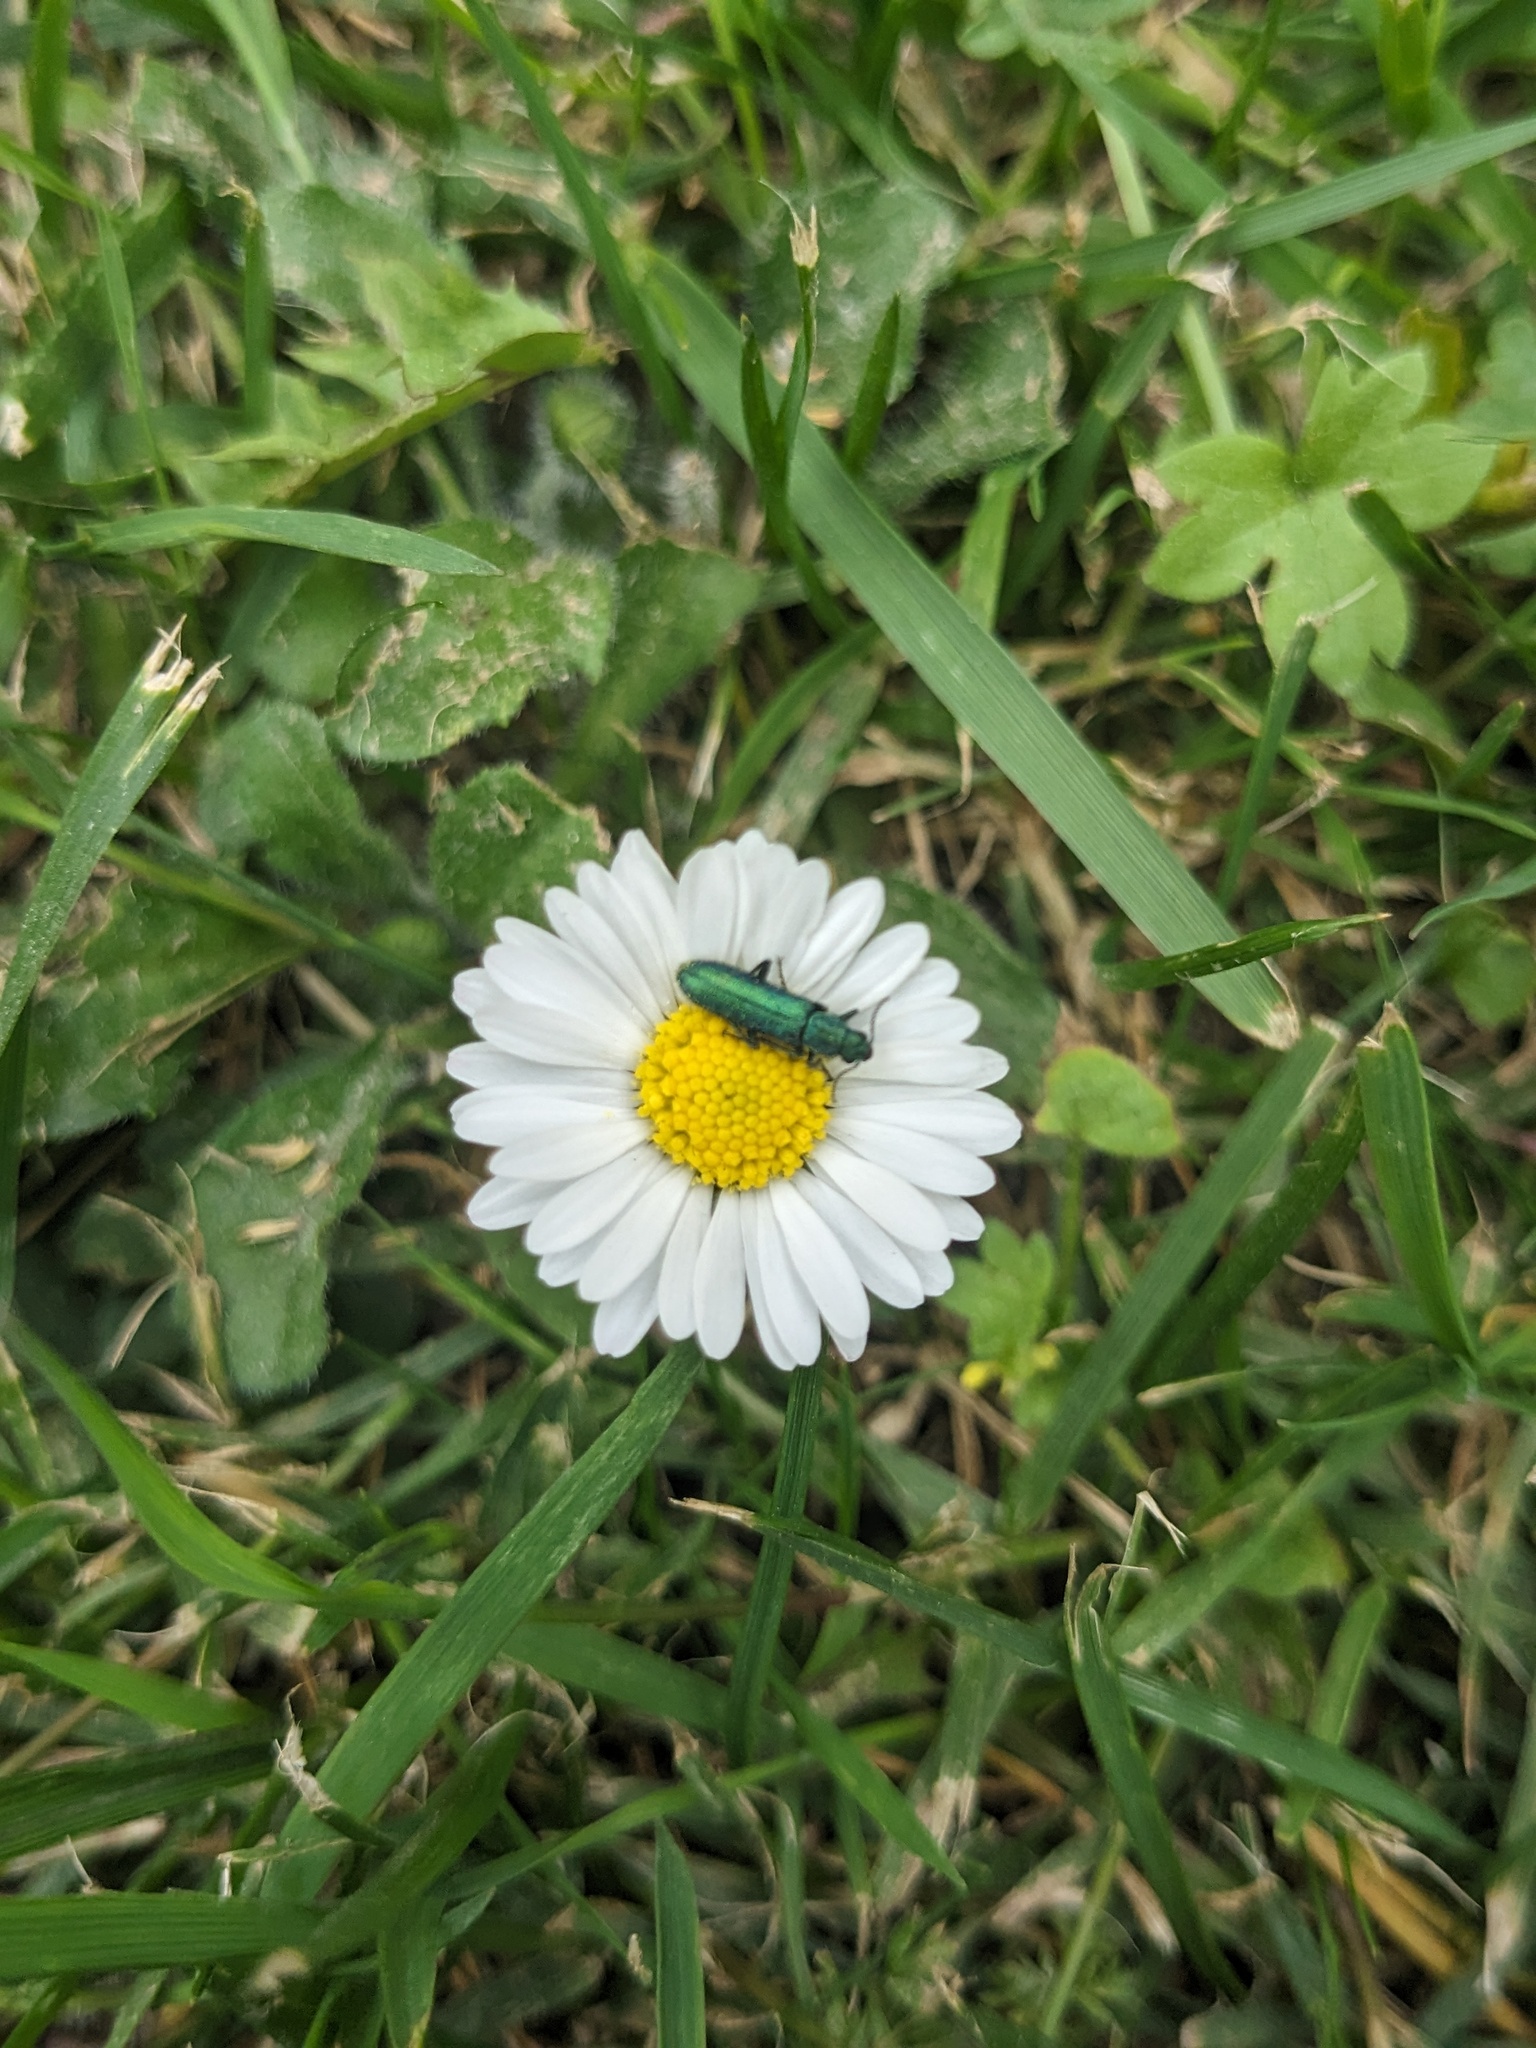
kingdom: Animalia
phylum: Arthropoda
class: Insecta
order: Coleoptera
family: Dasytidae
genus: Psilothrix
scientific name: Psilothrix viridicoerulea
